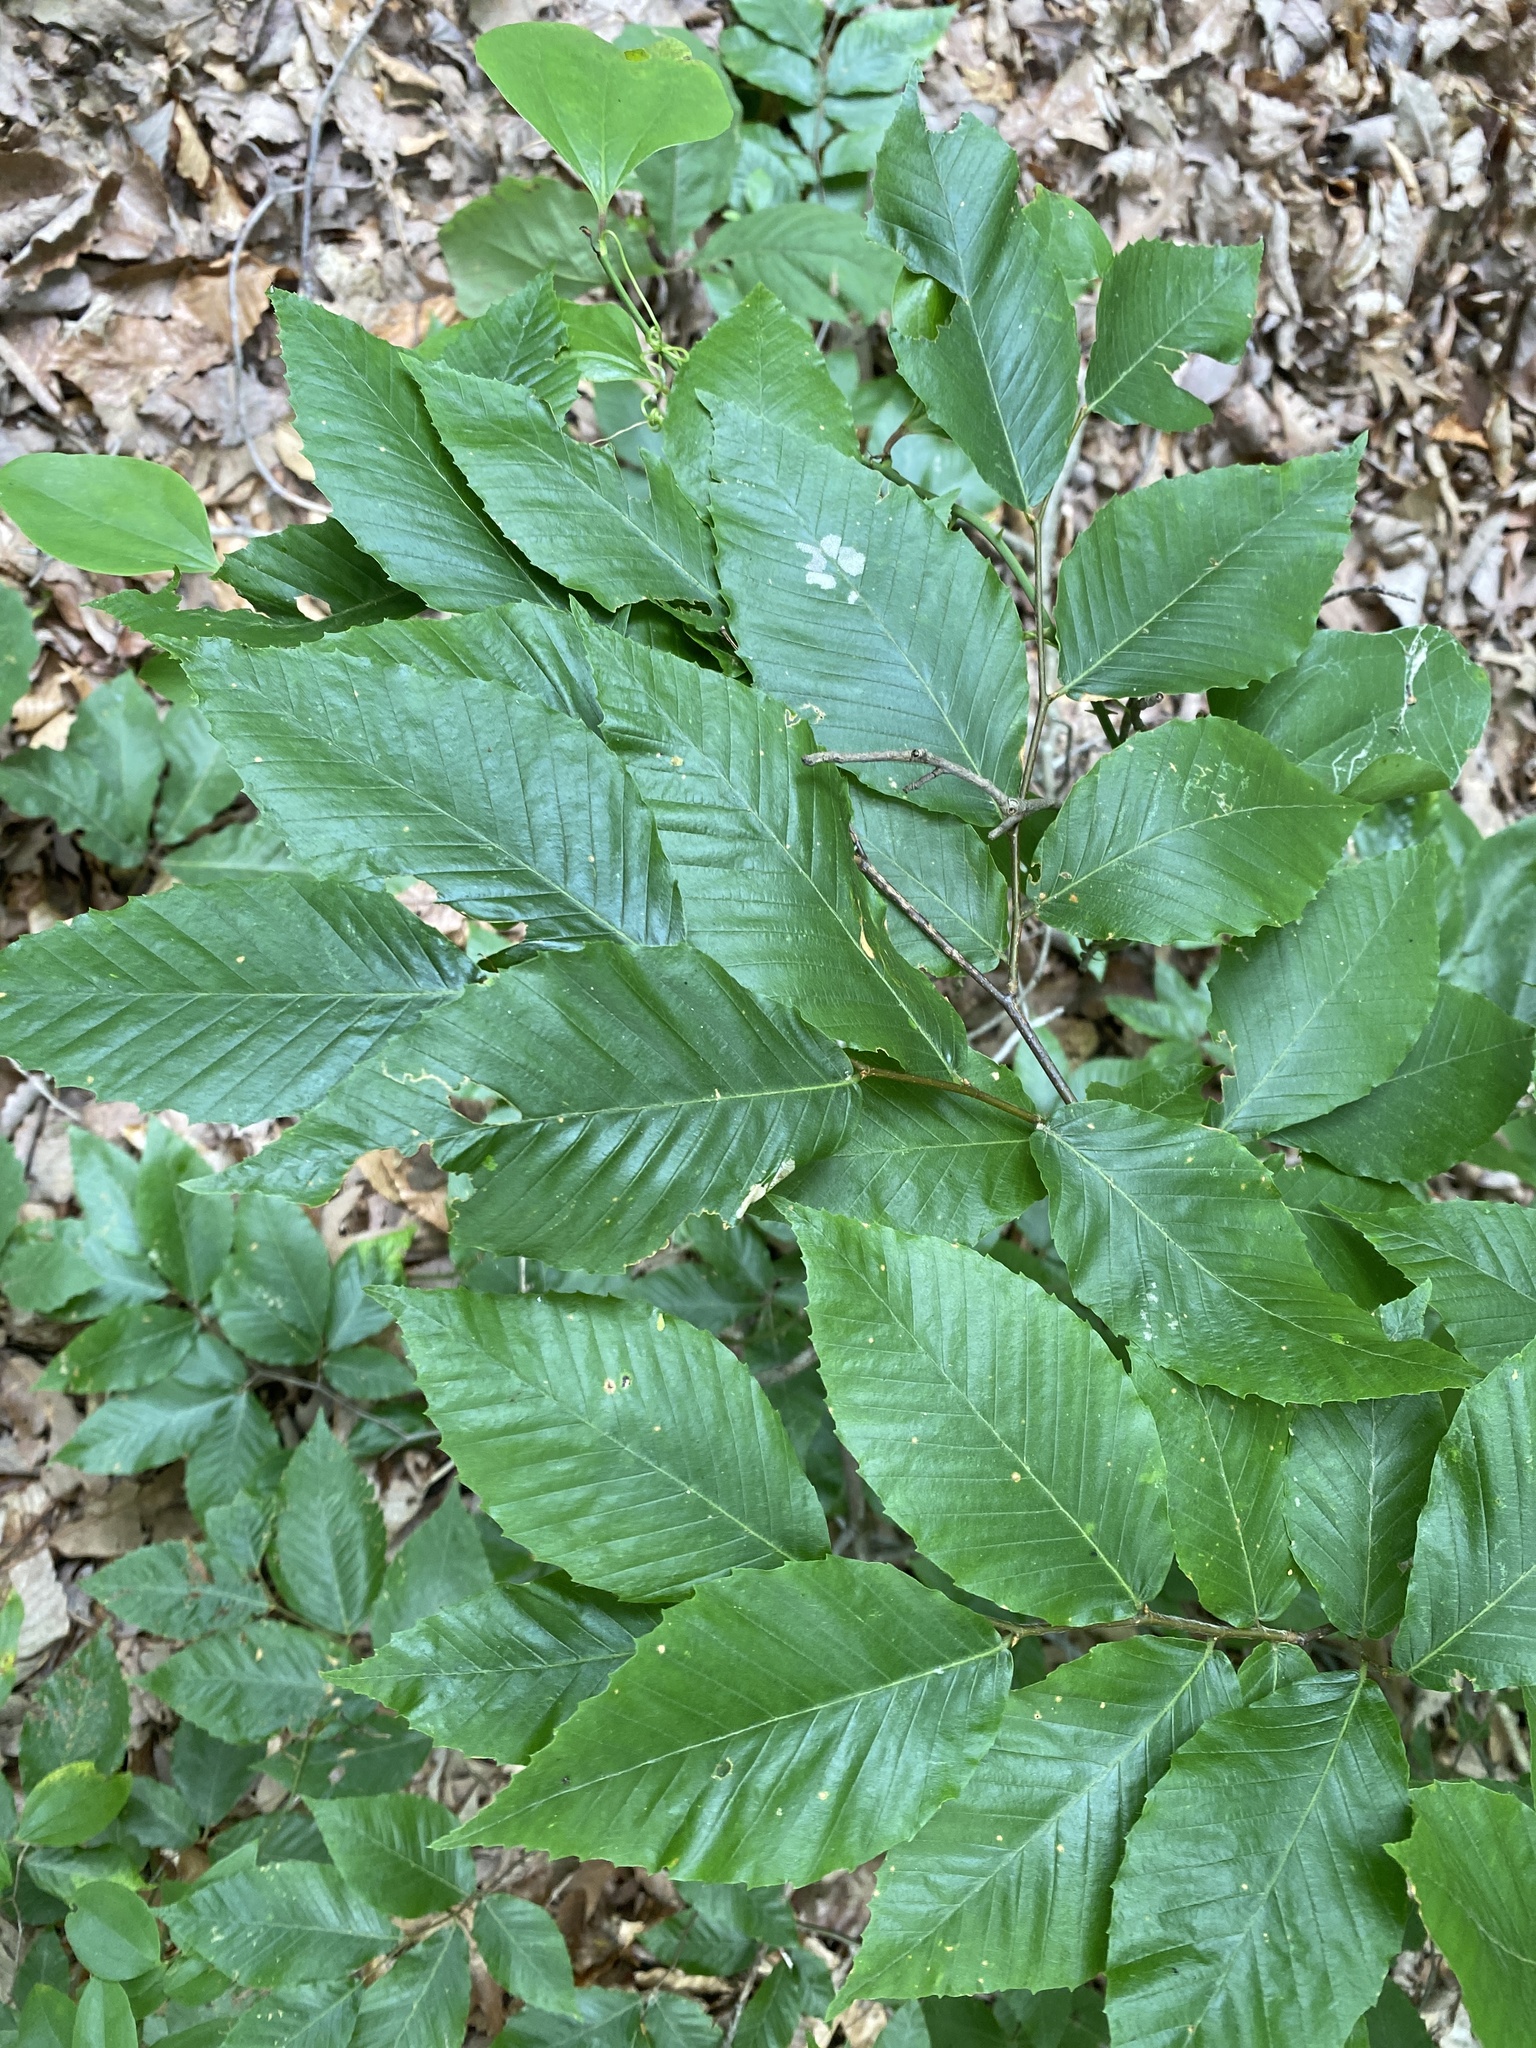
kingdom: Plantae
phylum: Tracheophyta
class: Magnoliopsida
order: Fagales
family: Fagaceae
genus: Fagus
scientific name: Fagus grandifolia
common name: American beech
